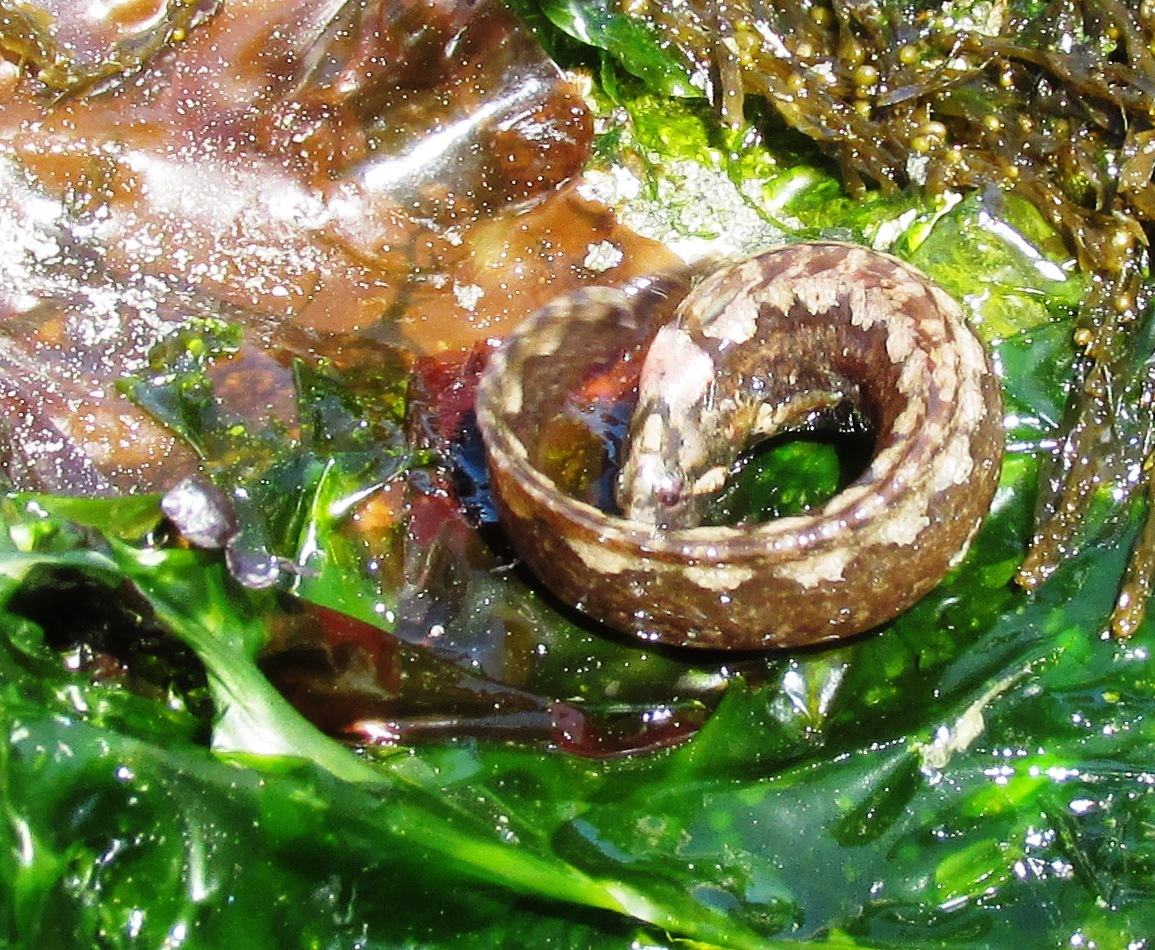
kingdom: Animalia
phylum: Chordata
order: Perciformes
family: Stichaeidae
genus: Anoplarchus
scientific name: Anoplarchus purpurescens
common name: High cockscomb
